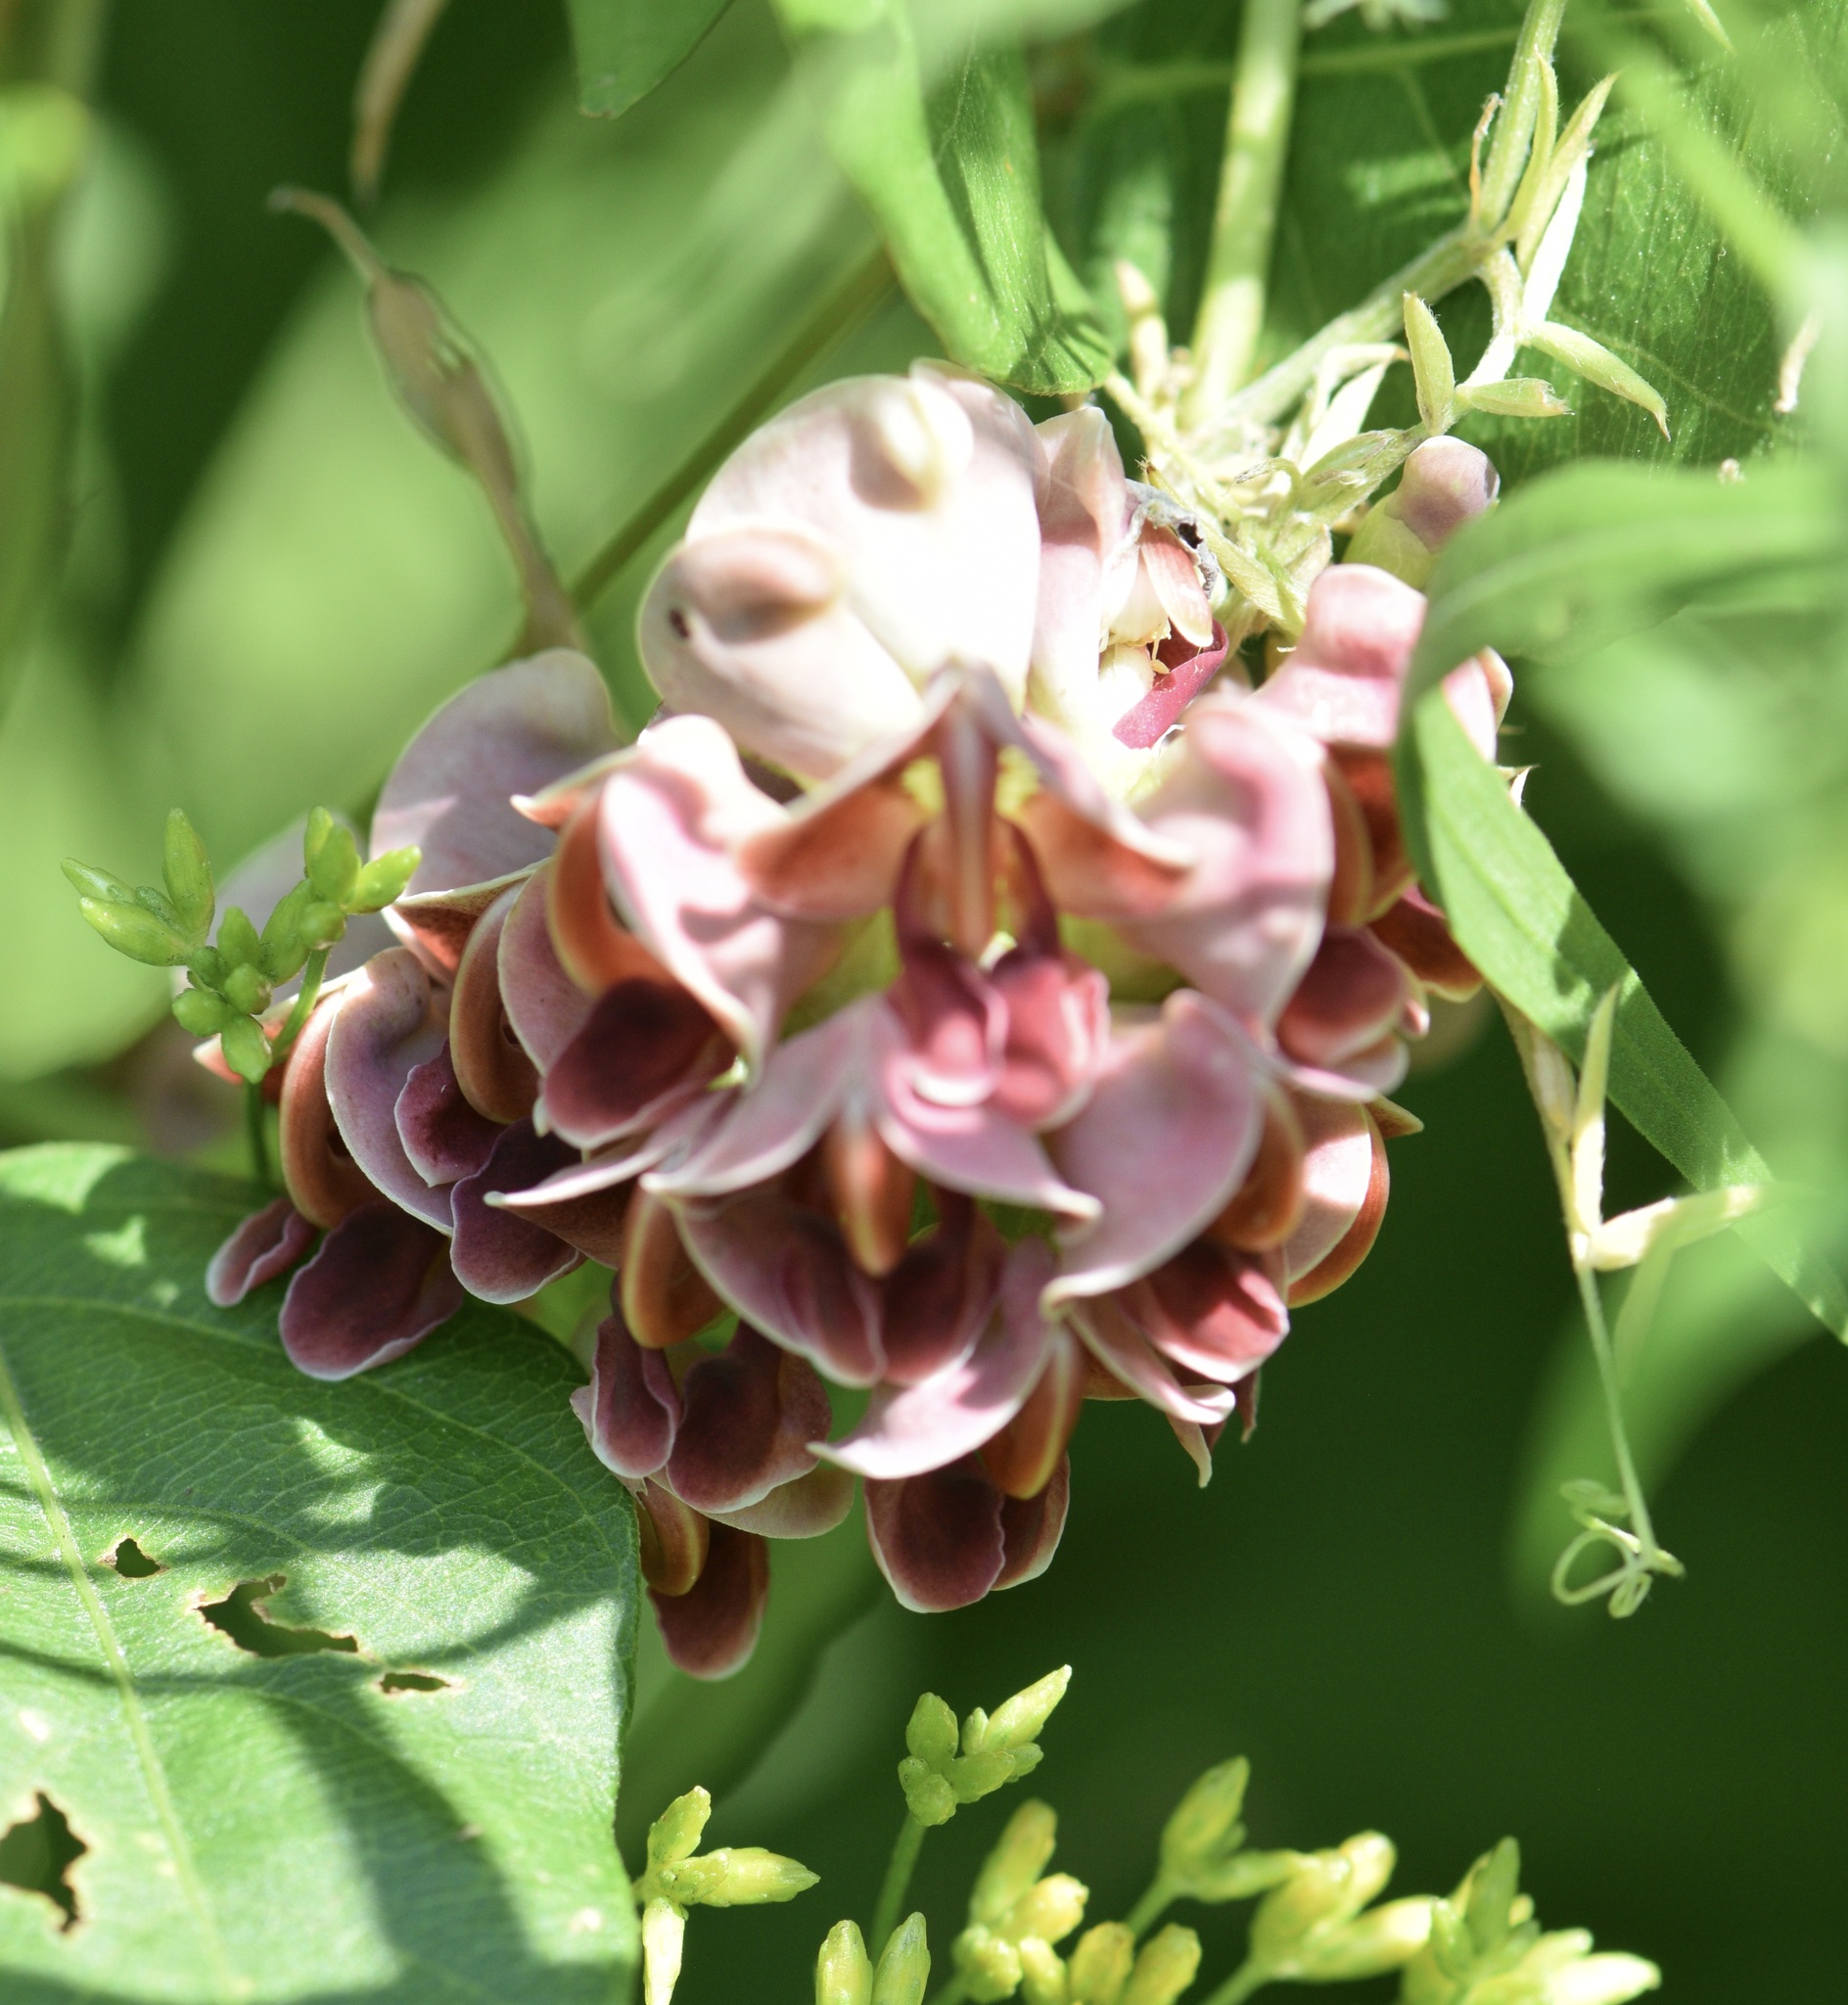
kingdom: Plantae
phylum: Tracheophyta
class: Magnoliopsida
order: Fabales
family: Fabaceae
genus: Apios
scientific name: Apios americana
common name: American potato-bean
